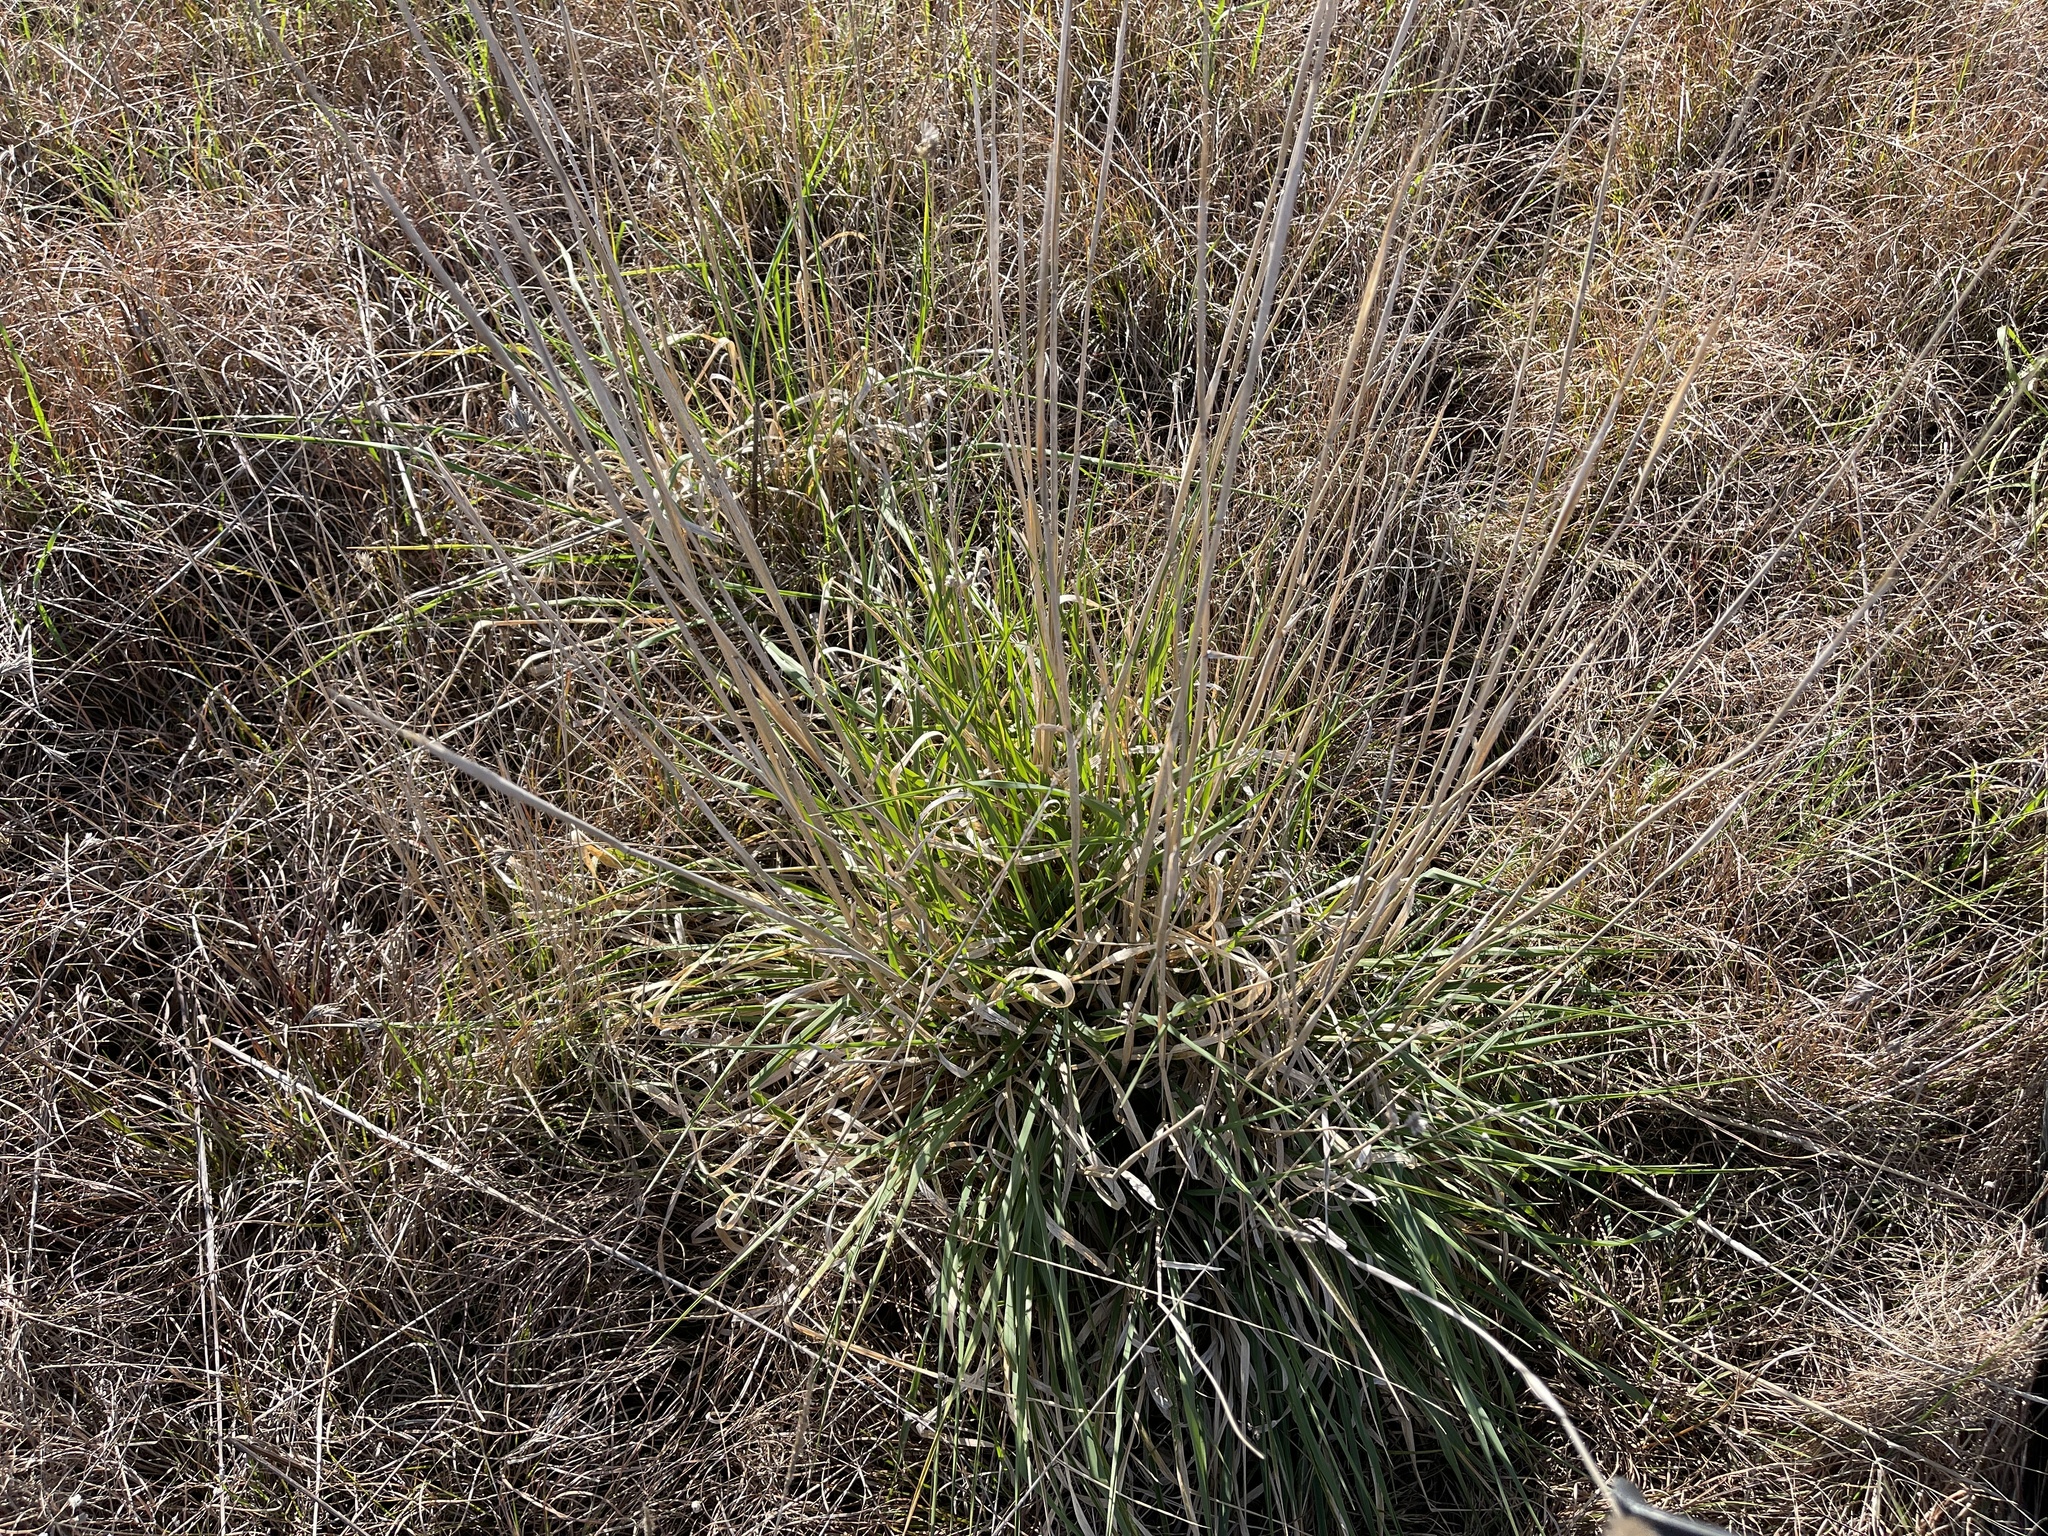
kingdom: Plantae
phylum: Tracheophyta
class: Liliopsida
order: Poales
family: Poaceae
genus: Phalaris
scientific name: Phalaris aquatica
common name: Bulbous canary-grass
